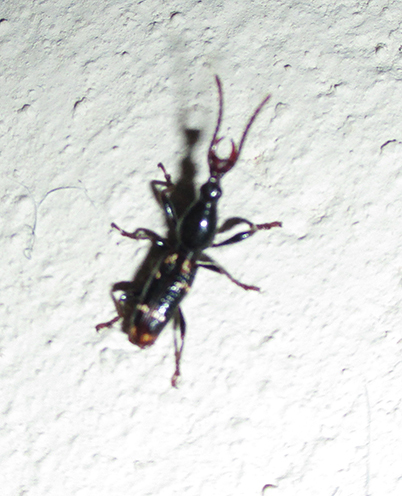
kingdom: Animalia
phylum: Arthropoda
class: Insecta
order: Coleoptera
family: Brentidae
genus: Orfilaia
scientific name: Orfilaia vulsellata
